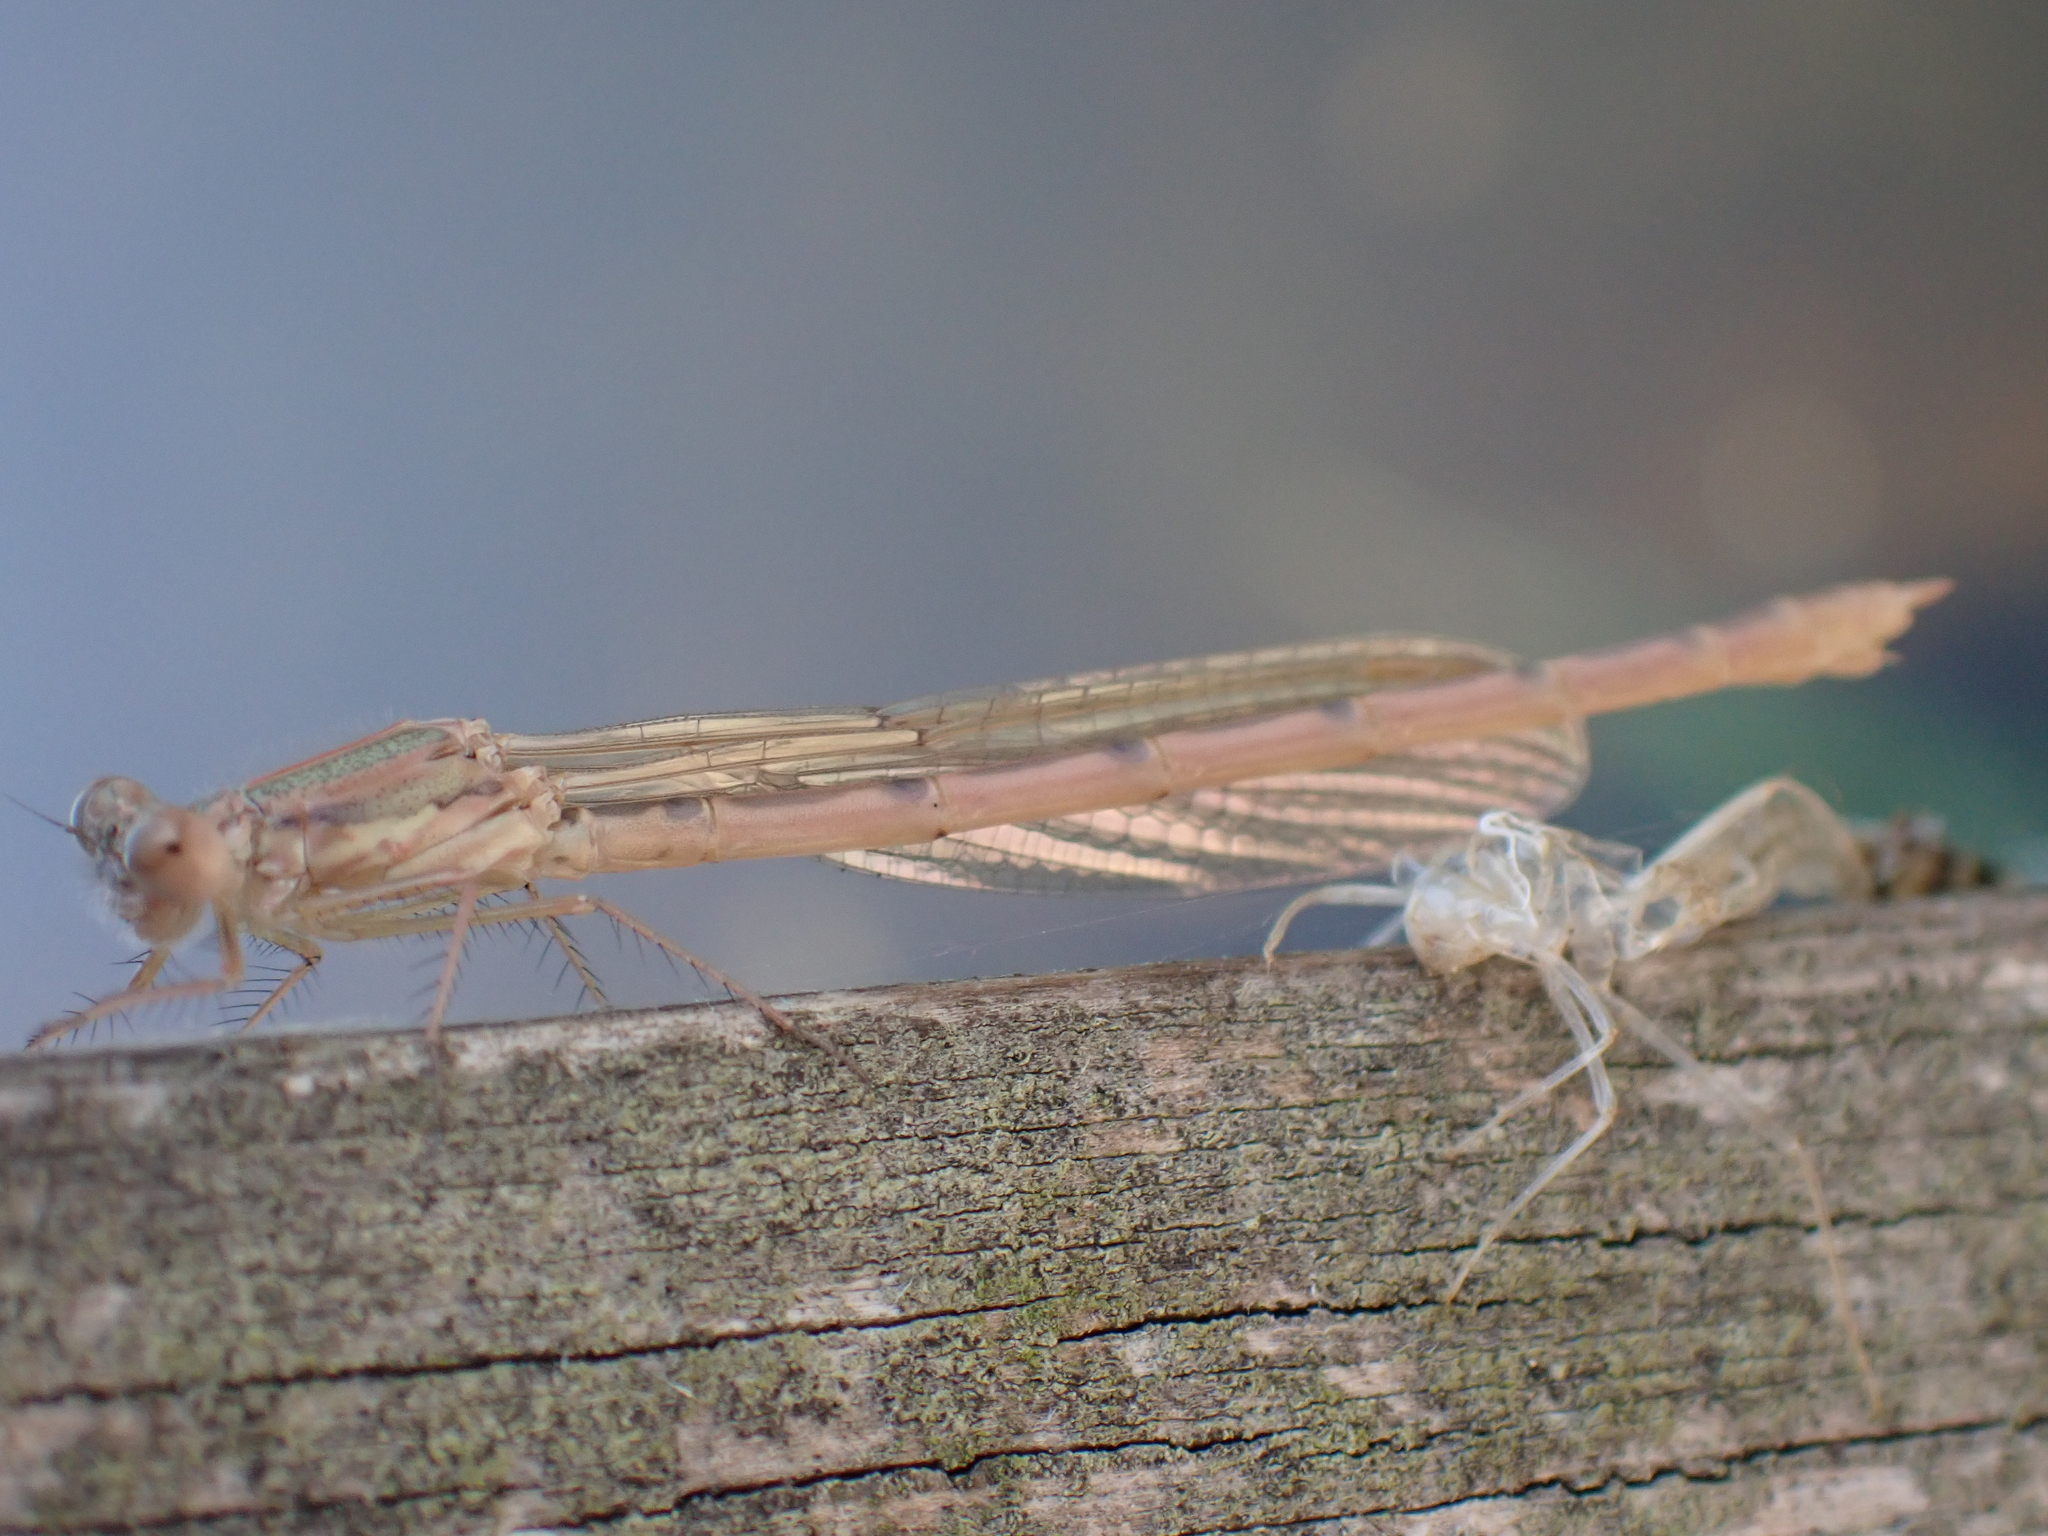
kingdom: Animalia
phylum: Arthropoda
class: Insecta
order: Odonata
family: Lestidae
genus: Sympecma
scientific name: Sympecma fusca
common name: Common winter damsel
